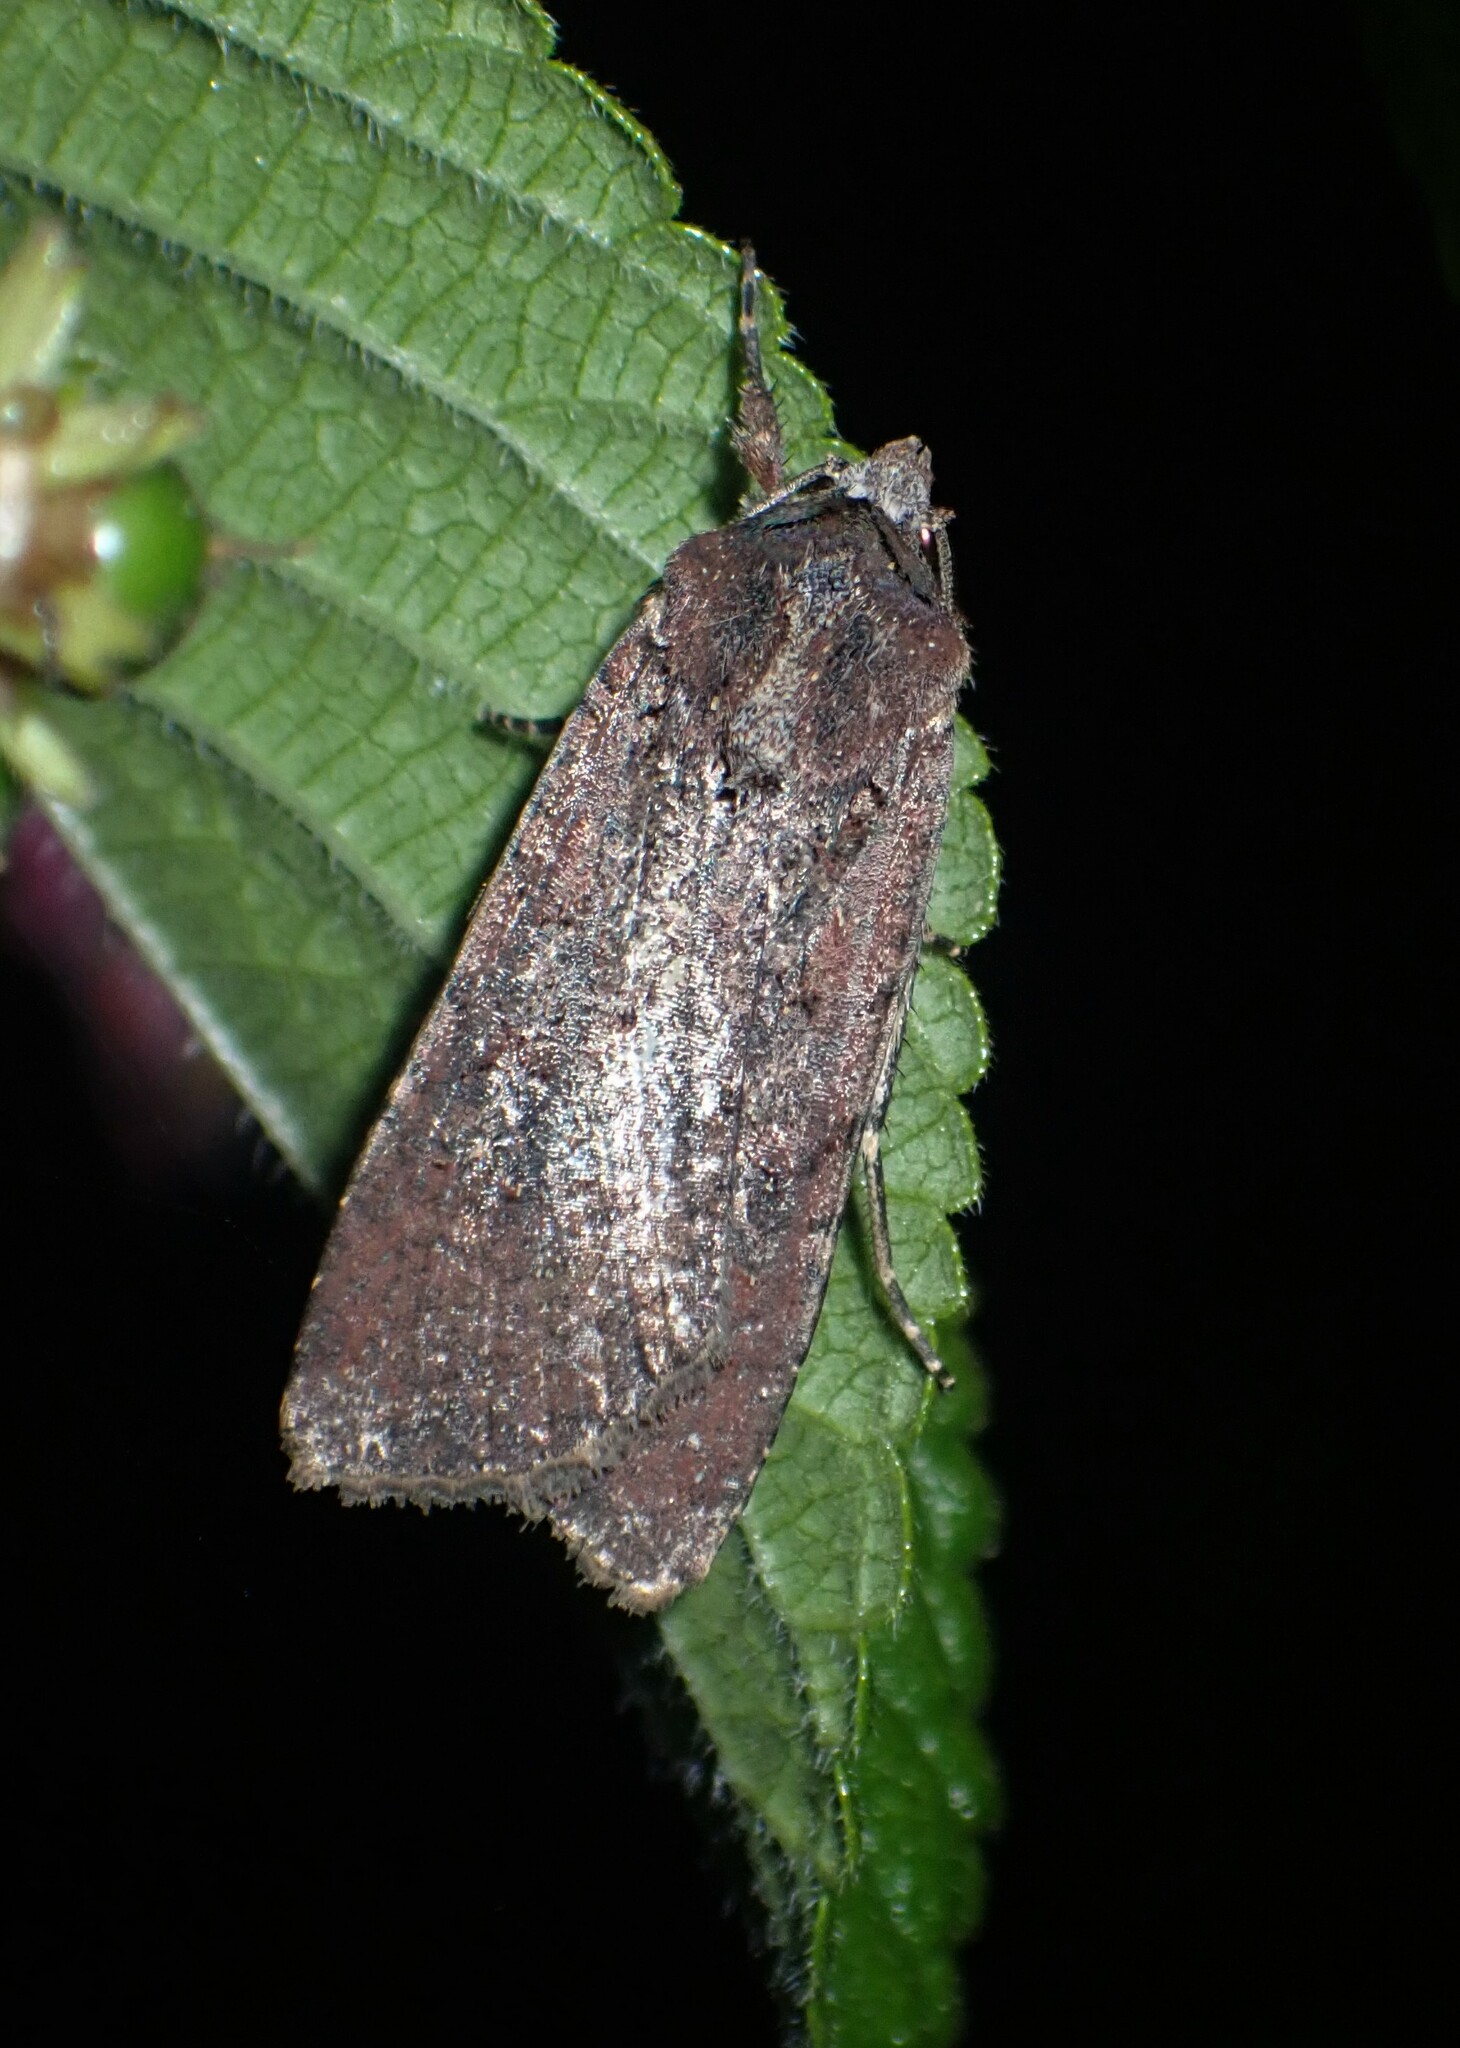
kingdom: Animalia
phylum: Arthropoda
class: Insecta
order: Lepidoptera
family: Noctuidae
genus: Peridroma
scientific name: Peridroma saucia
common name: Pearly underwing
